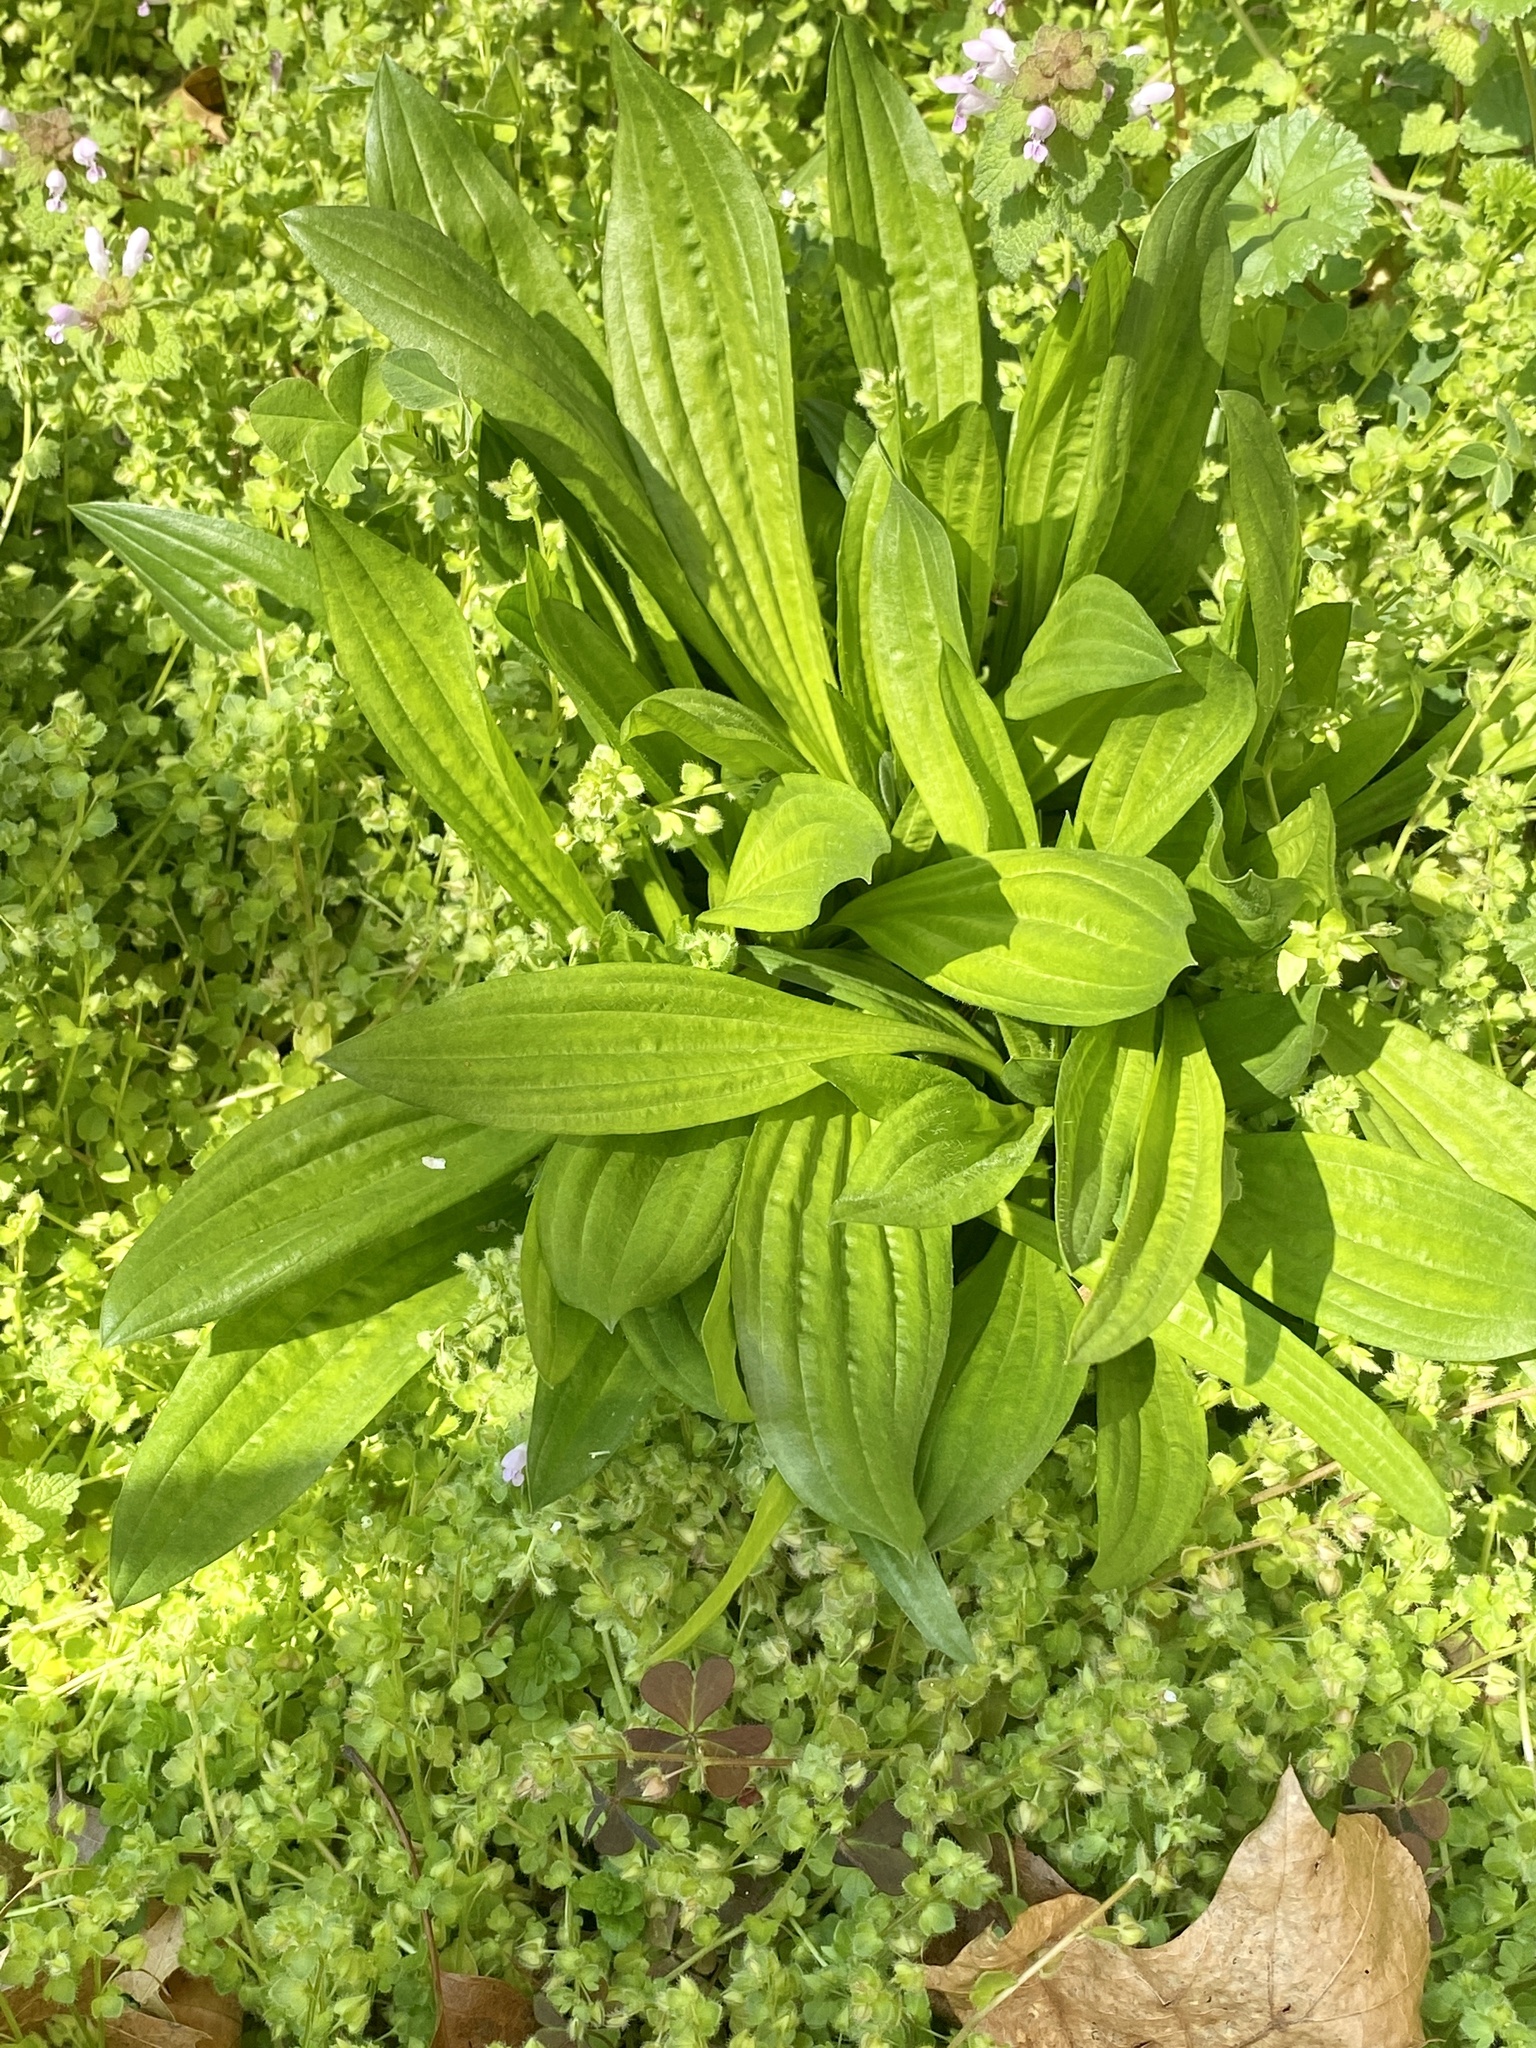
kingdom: Plantae
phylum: Tracheophyta
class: Magnoliopsida
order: Lamiales
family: Plantaginaceae
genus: Plantago
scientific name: Plantago lanceolata
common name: Ribwort plantain
